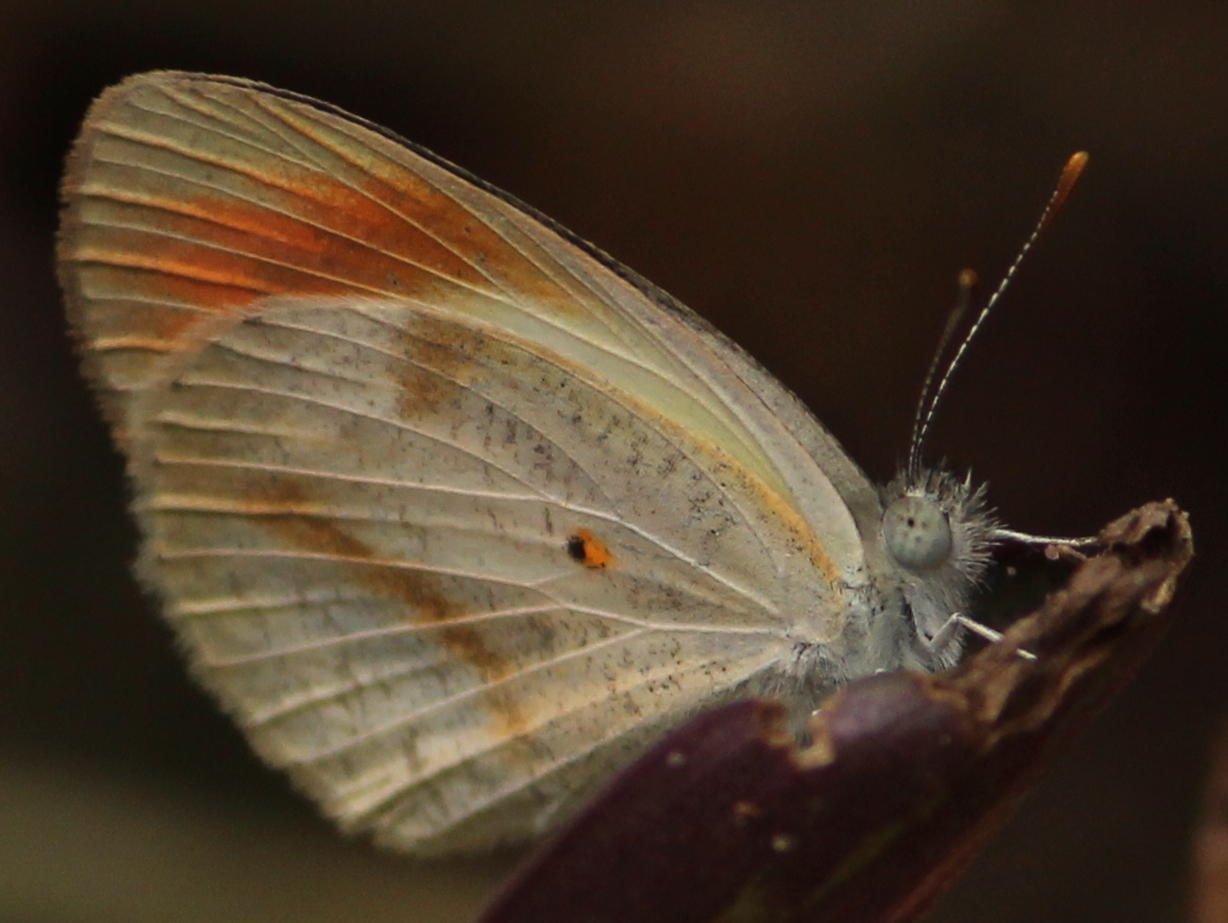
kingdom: Animalia
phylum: Arthropoda
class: Insecta
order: Lepidoptera
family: Pieridae
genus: Colotis
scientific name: Colotis euippe
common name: Round-winged orange tip
